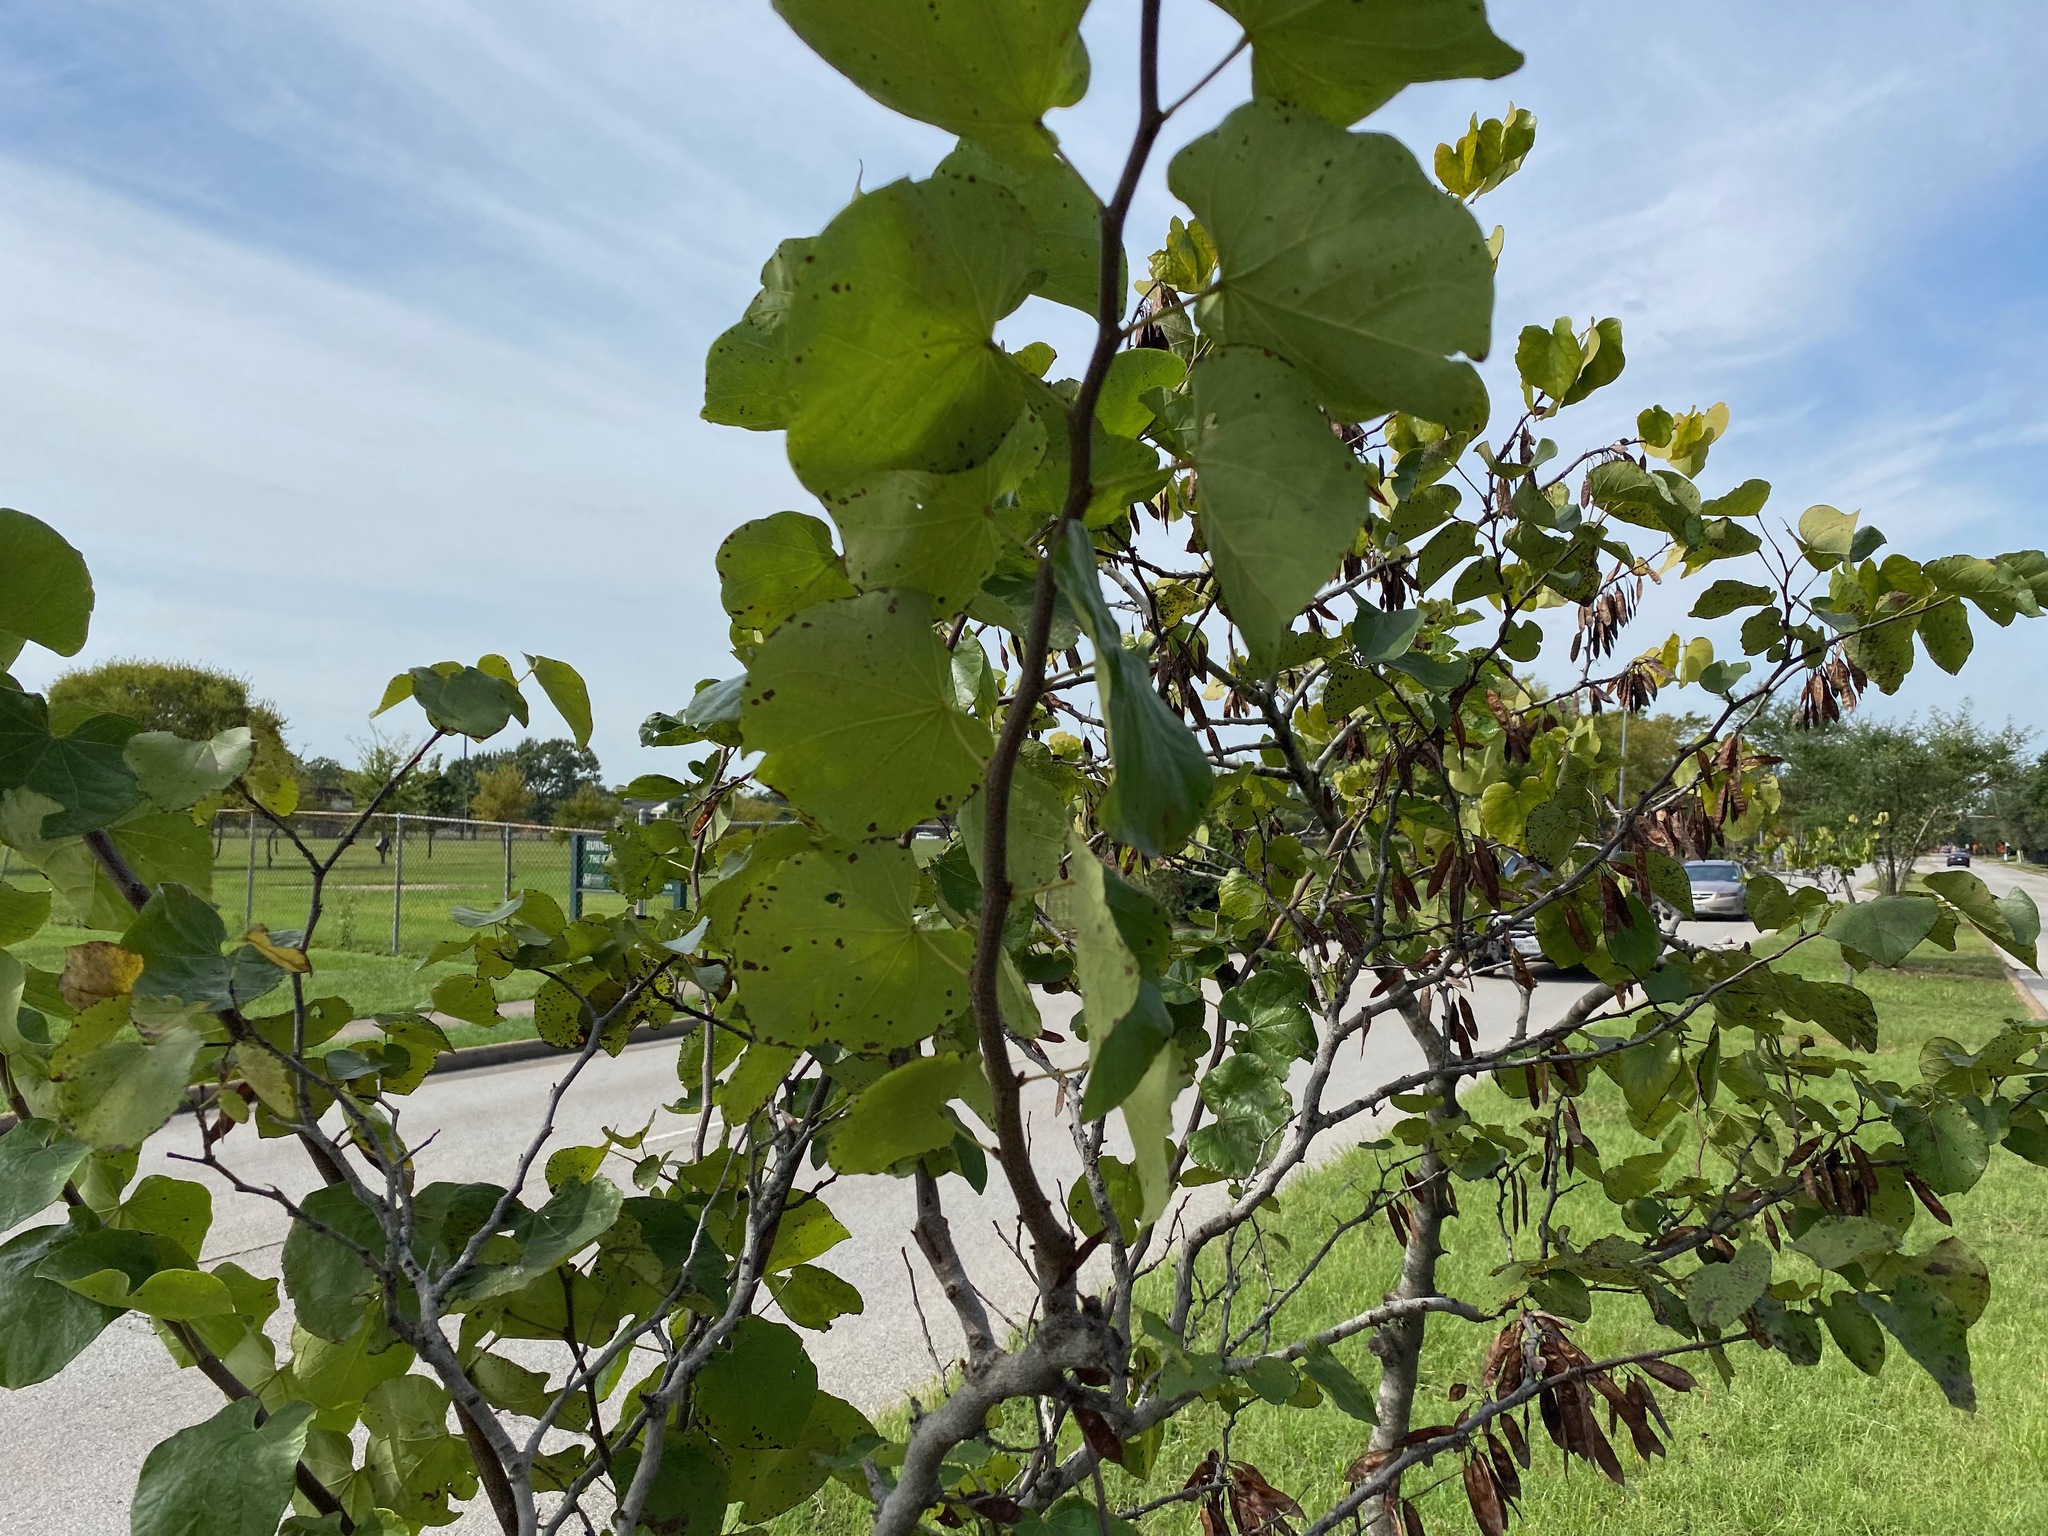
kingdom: Plantae
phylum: Tracheophyta
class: Magnoliopsida
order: Fabales
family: Fabaceae
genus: Cercis
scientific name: Cercis canadensis
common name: Eastern redbud
